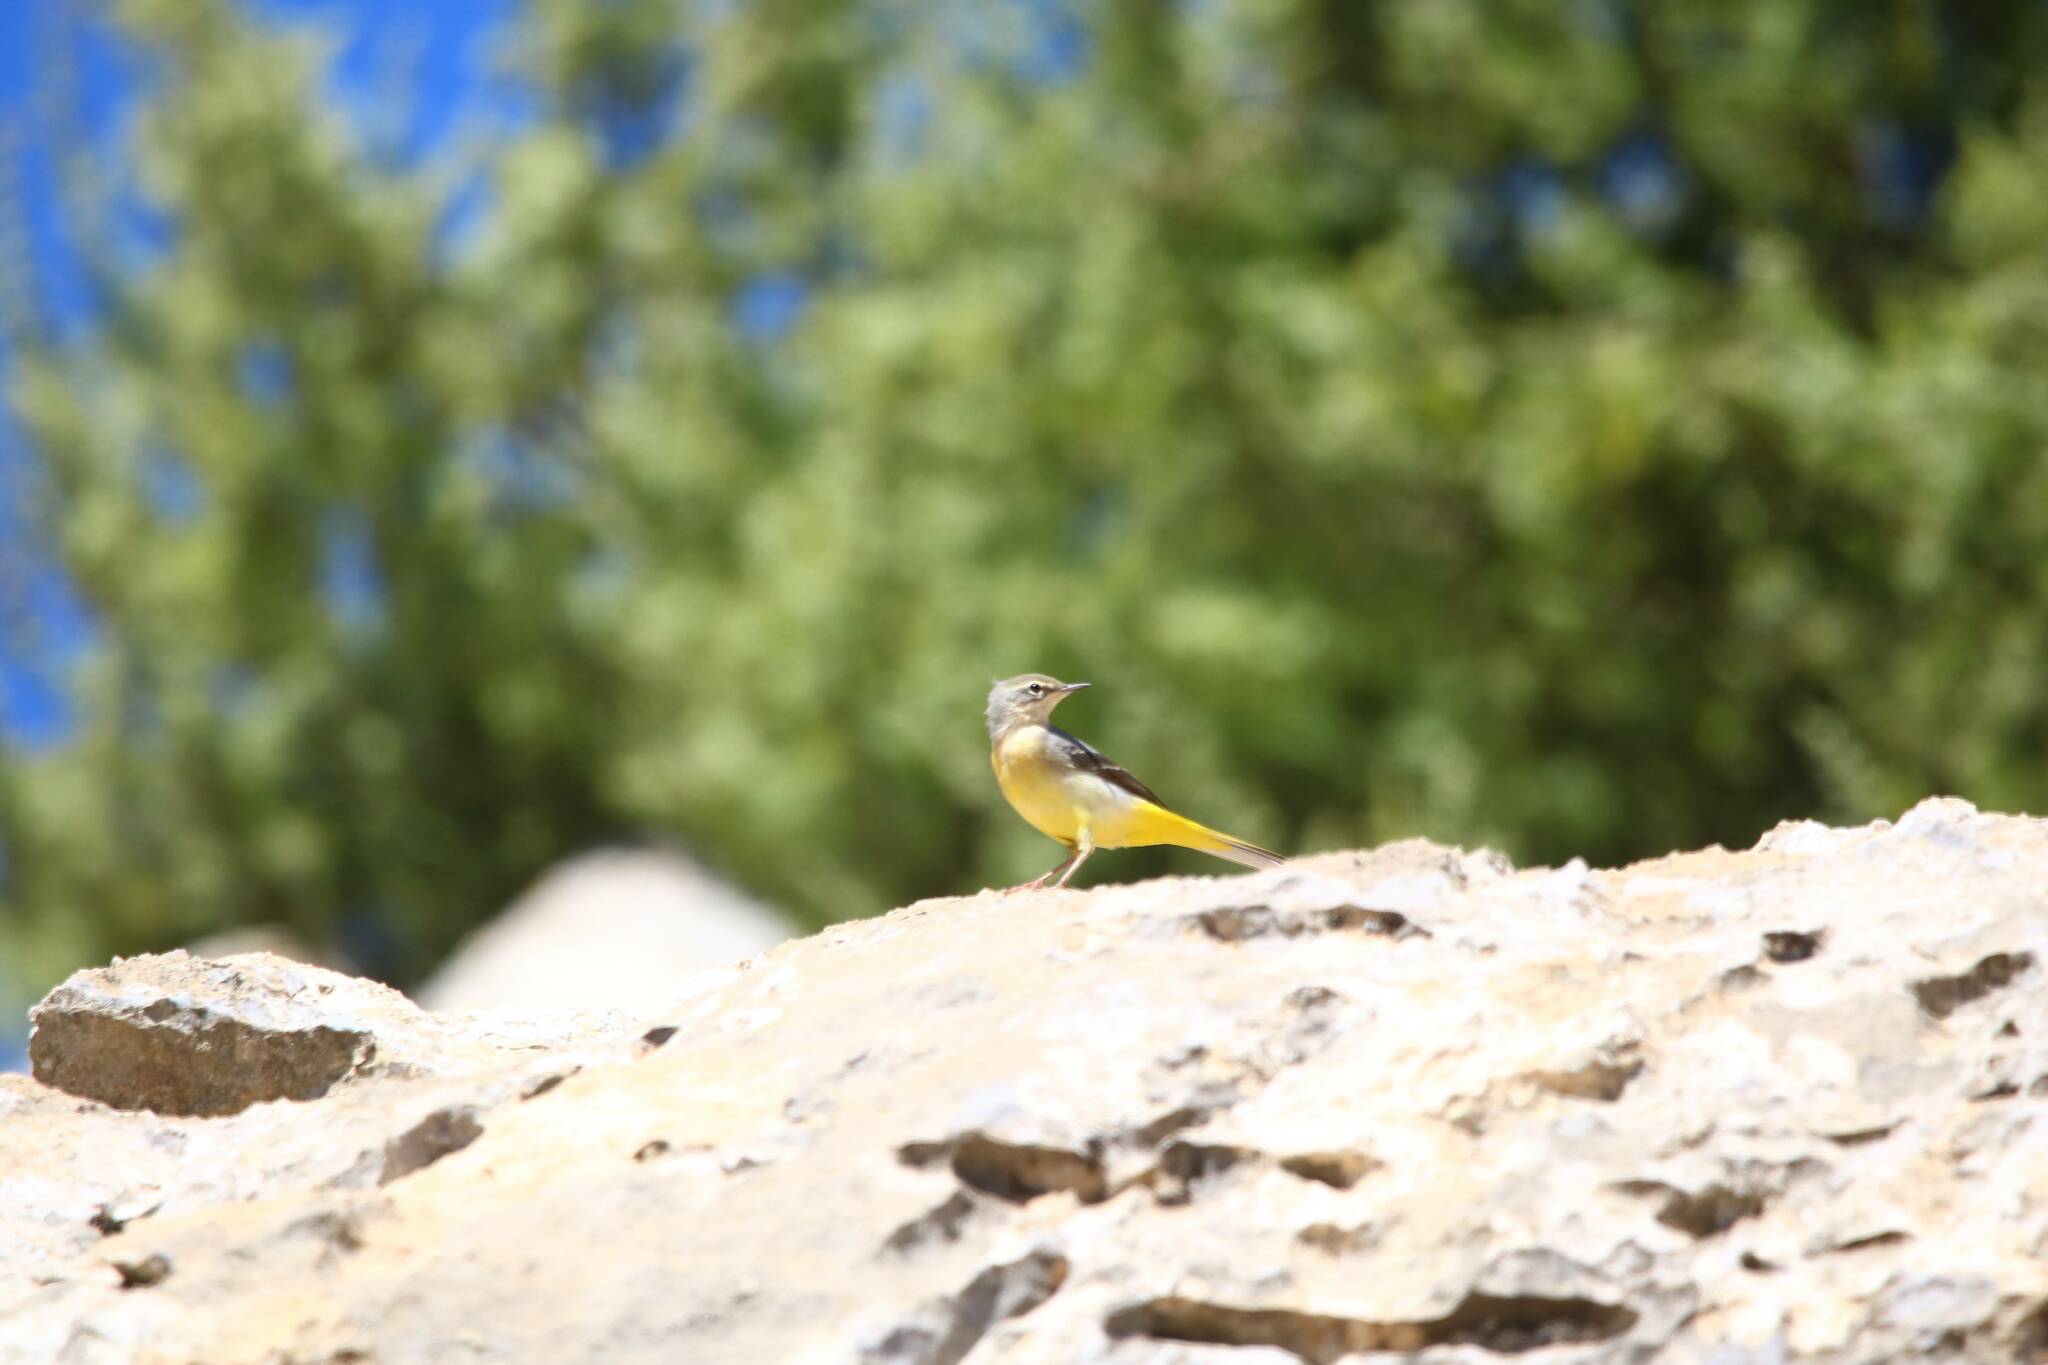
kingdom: Animalia
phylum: Chordata
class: Aves
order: Passeriformes
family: Motacillidae
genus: Motacilla
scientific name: Motacilla cinerea
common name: Grey wagtail
